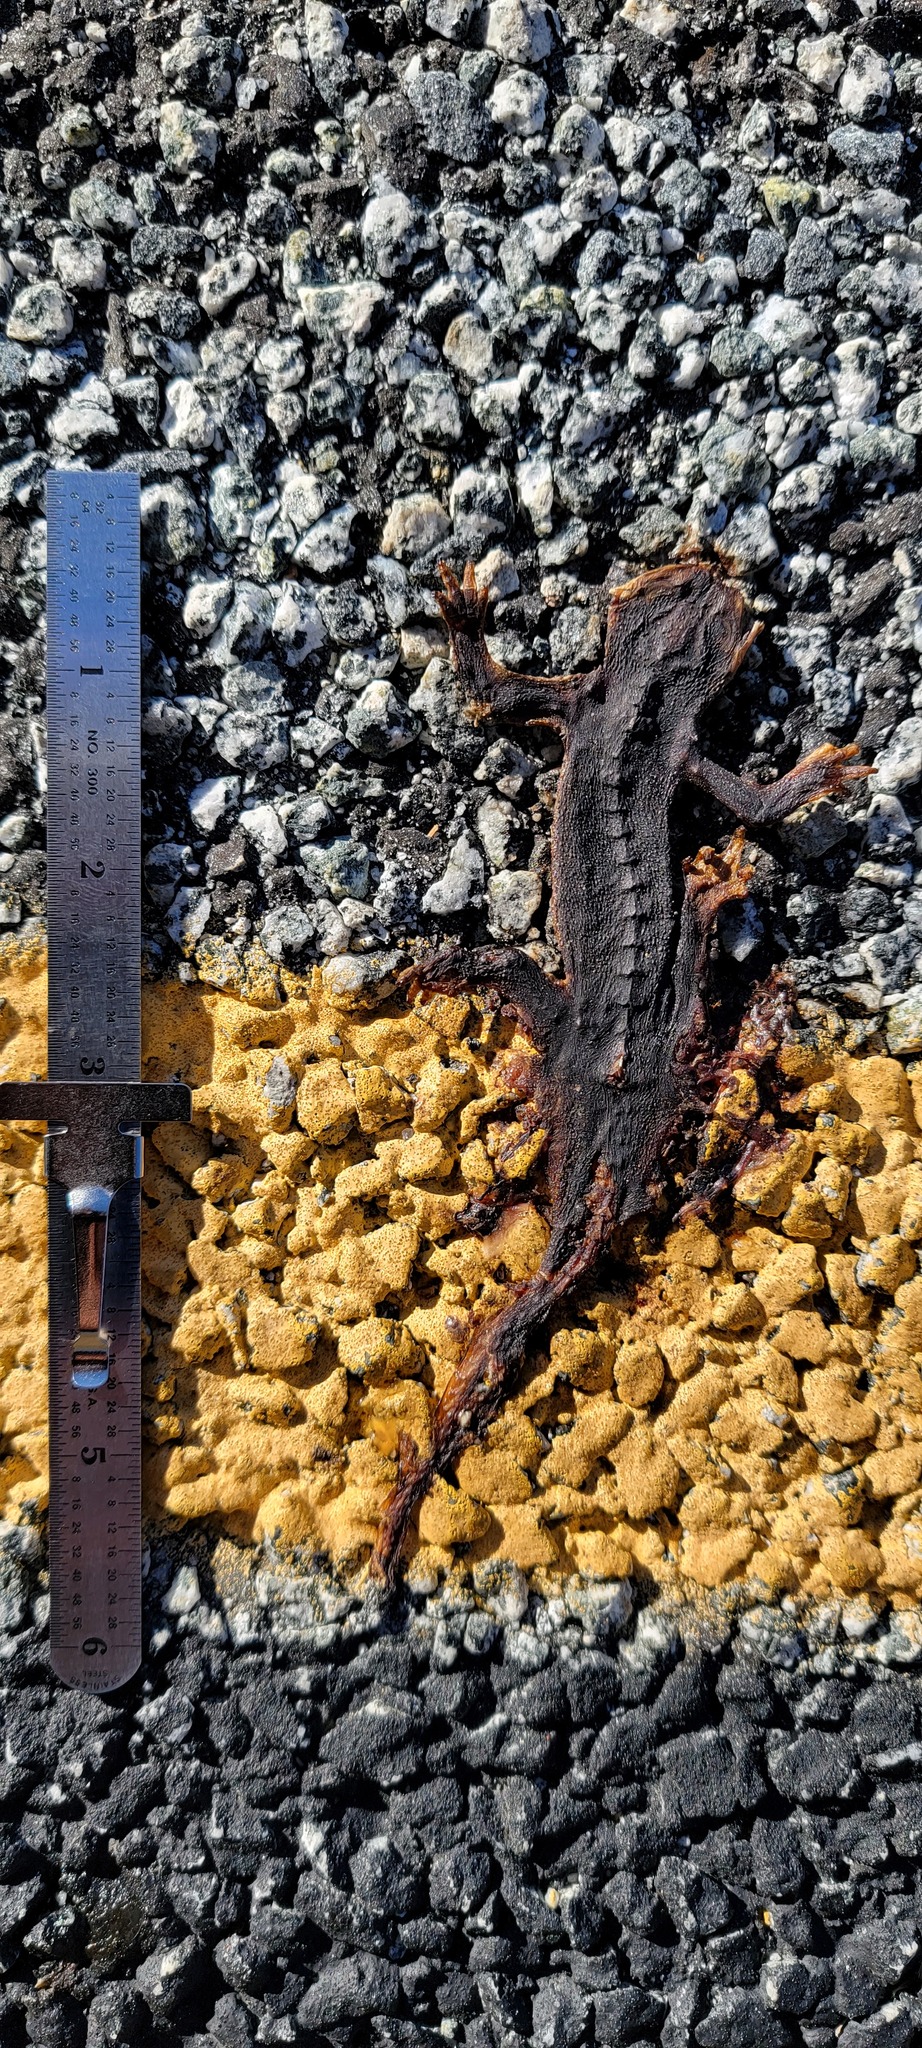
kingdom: Animalia
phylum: Chordata
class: Amphibia
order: Caudata
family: Salamandridae
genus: Taricha
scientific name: Taricha
